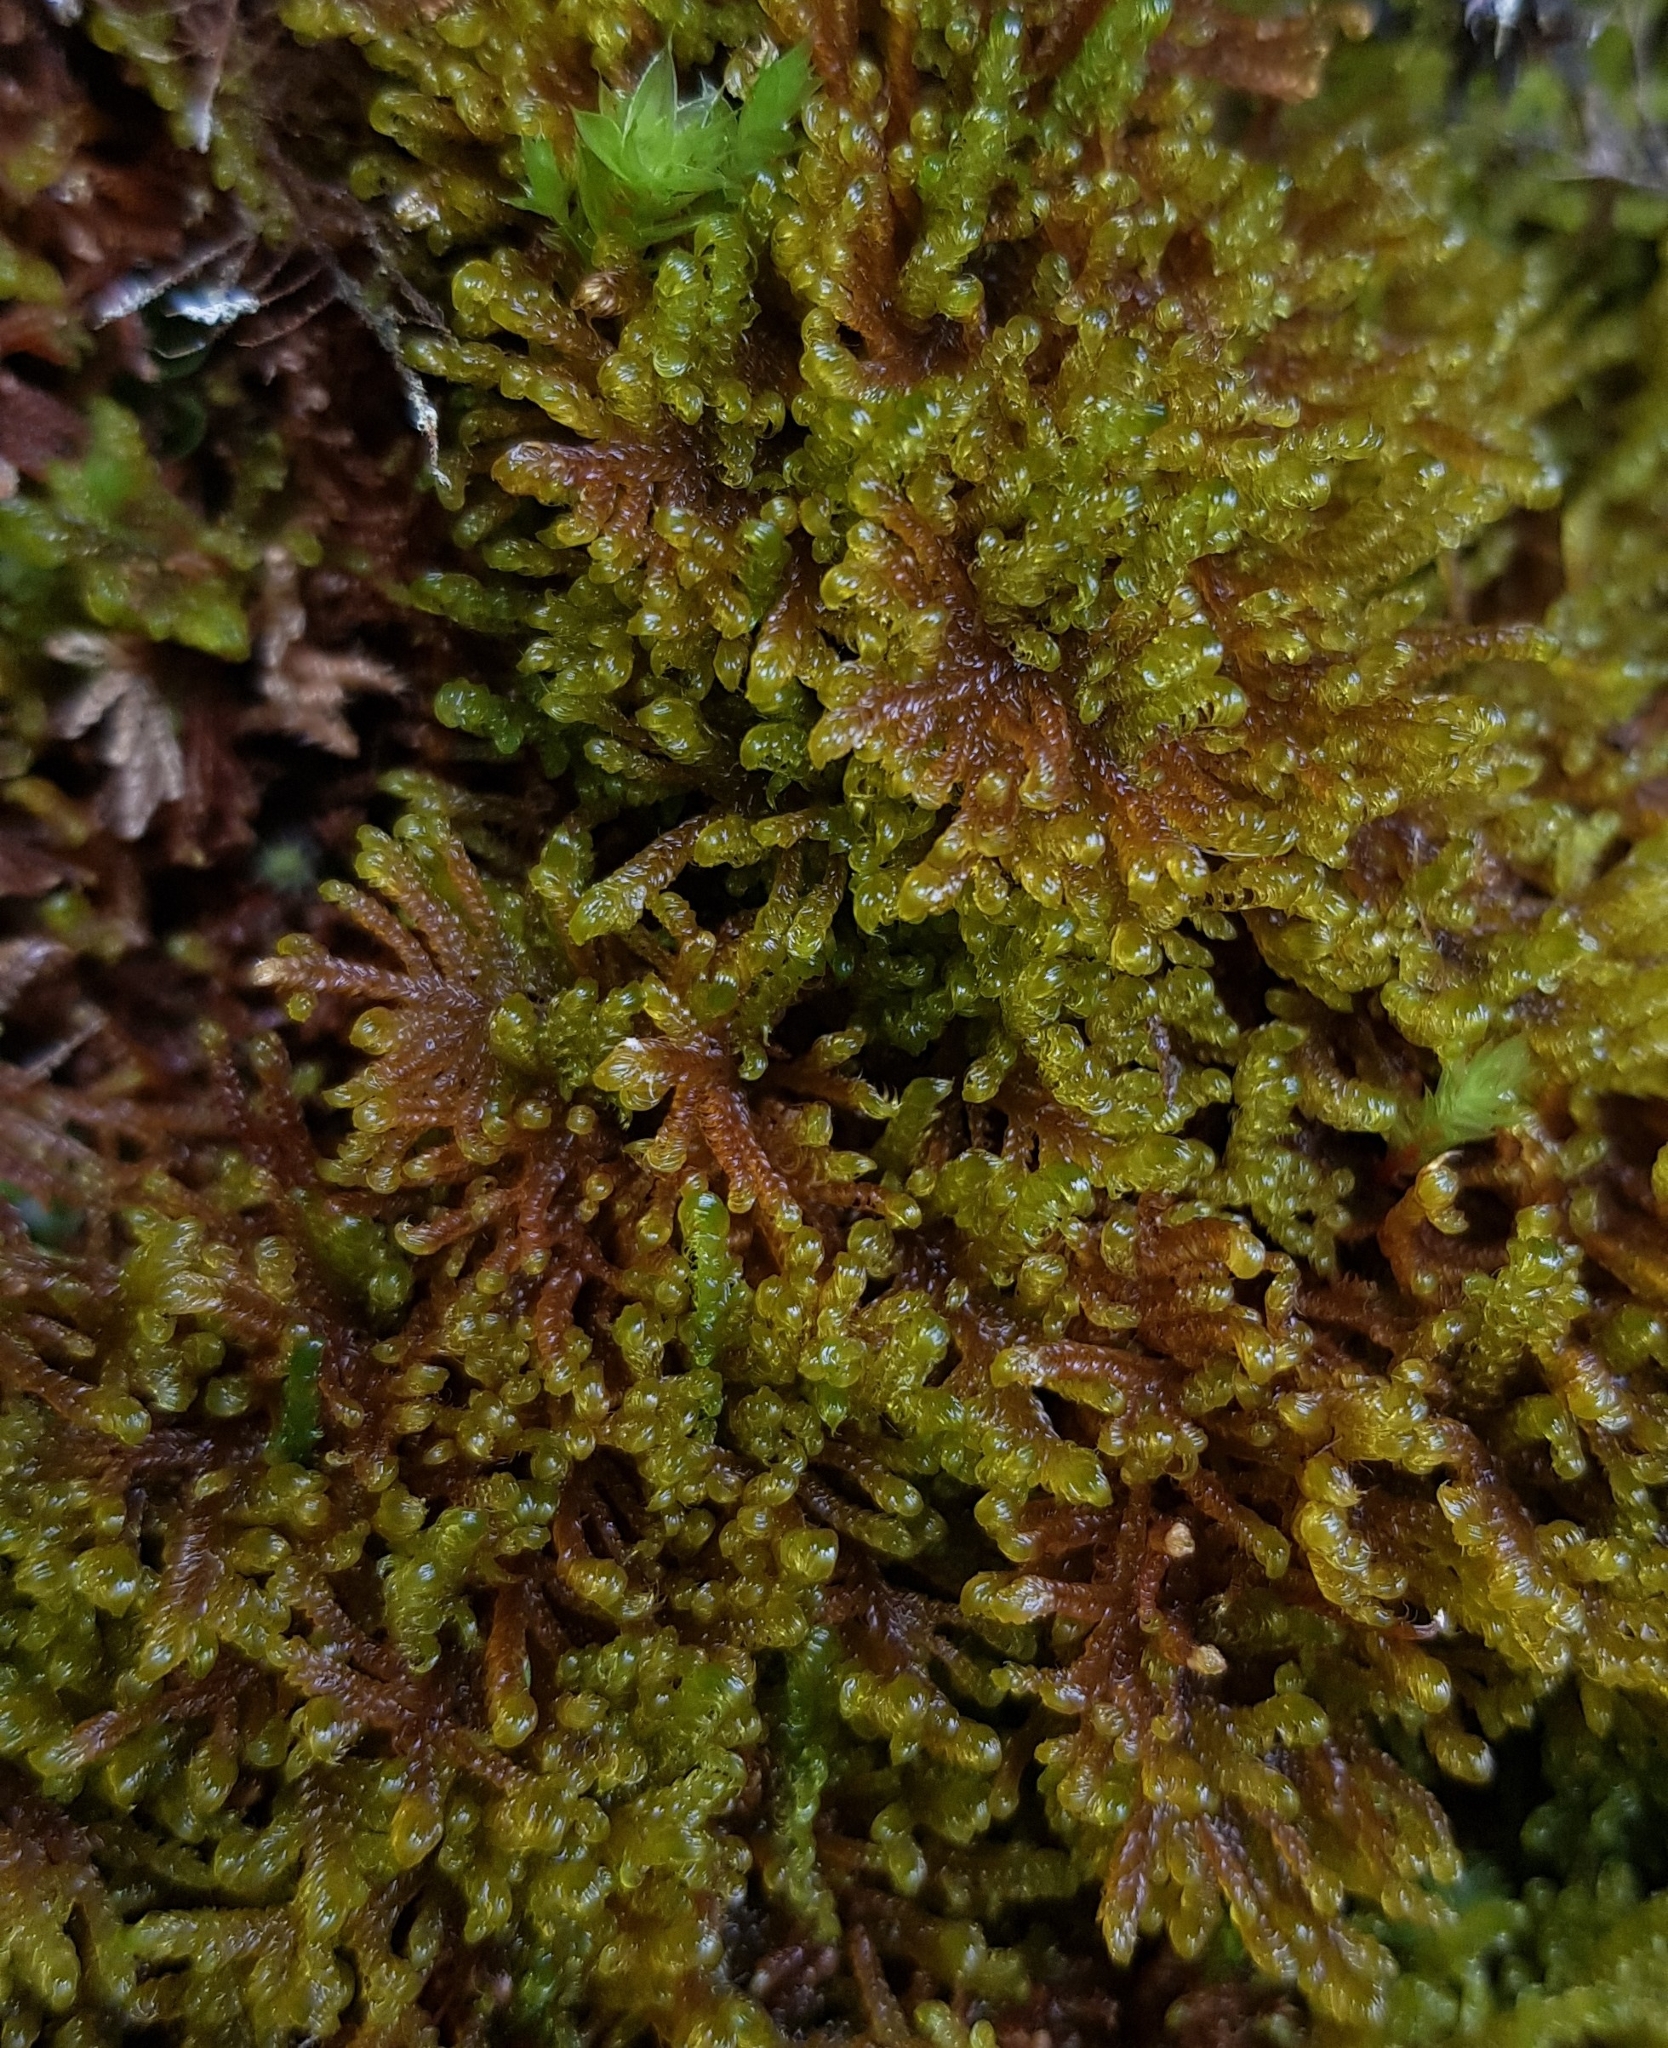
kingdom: Plantae
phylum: Bryophyta
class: Bryopsida
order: Hypnales
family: Amblystegiaceae
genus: Palustriella
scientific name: Palustriella commutata
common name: Curled hook-moss
